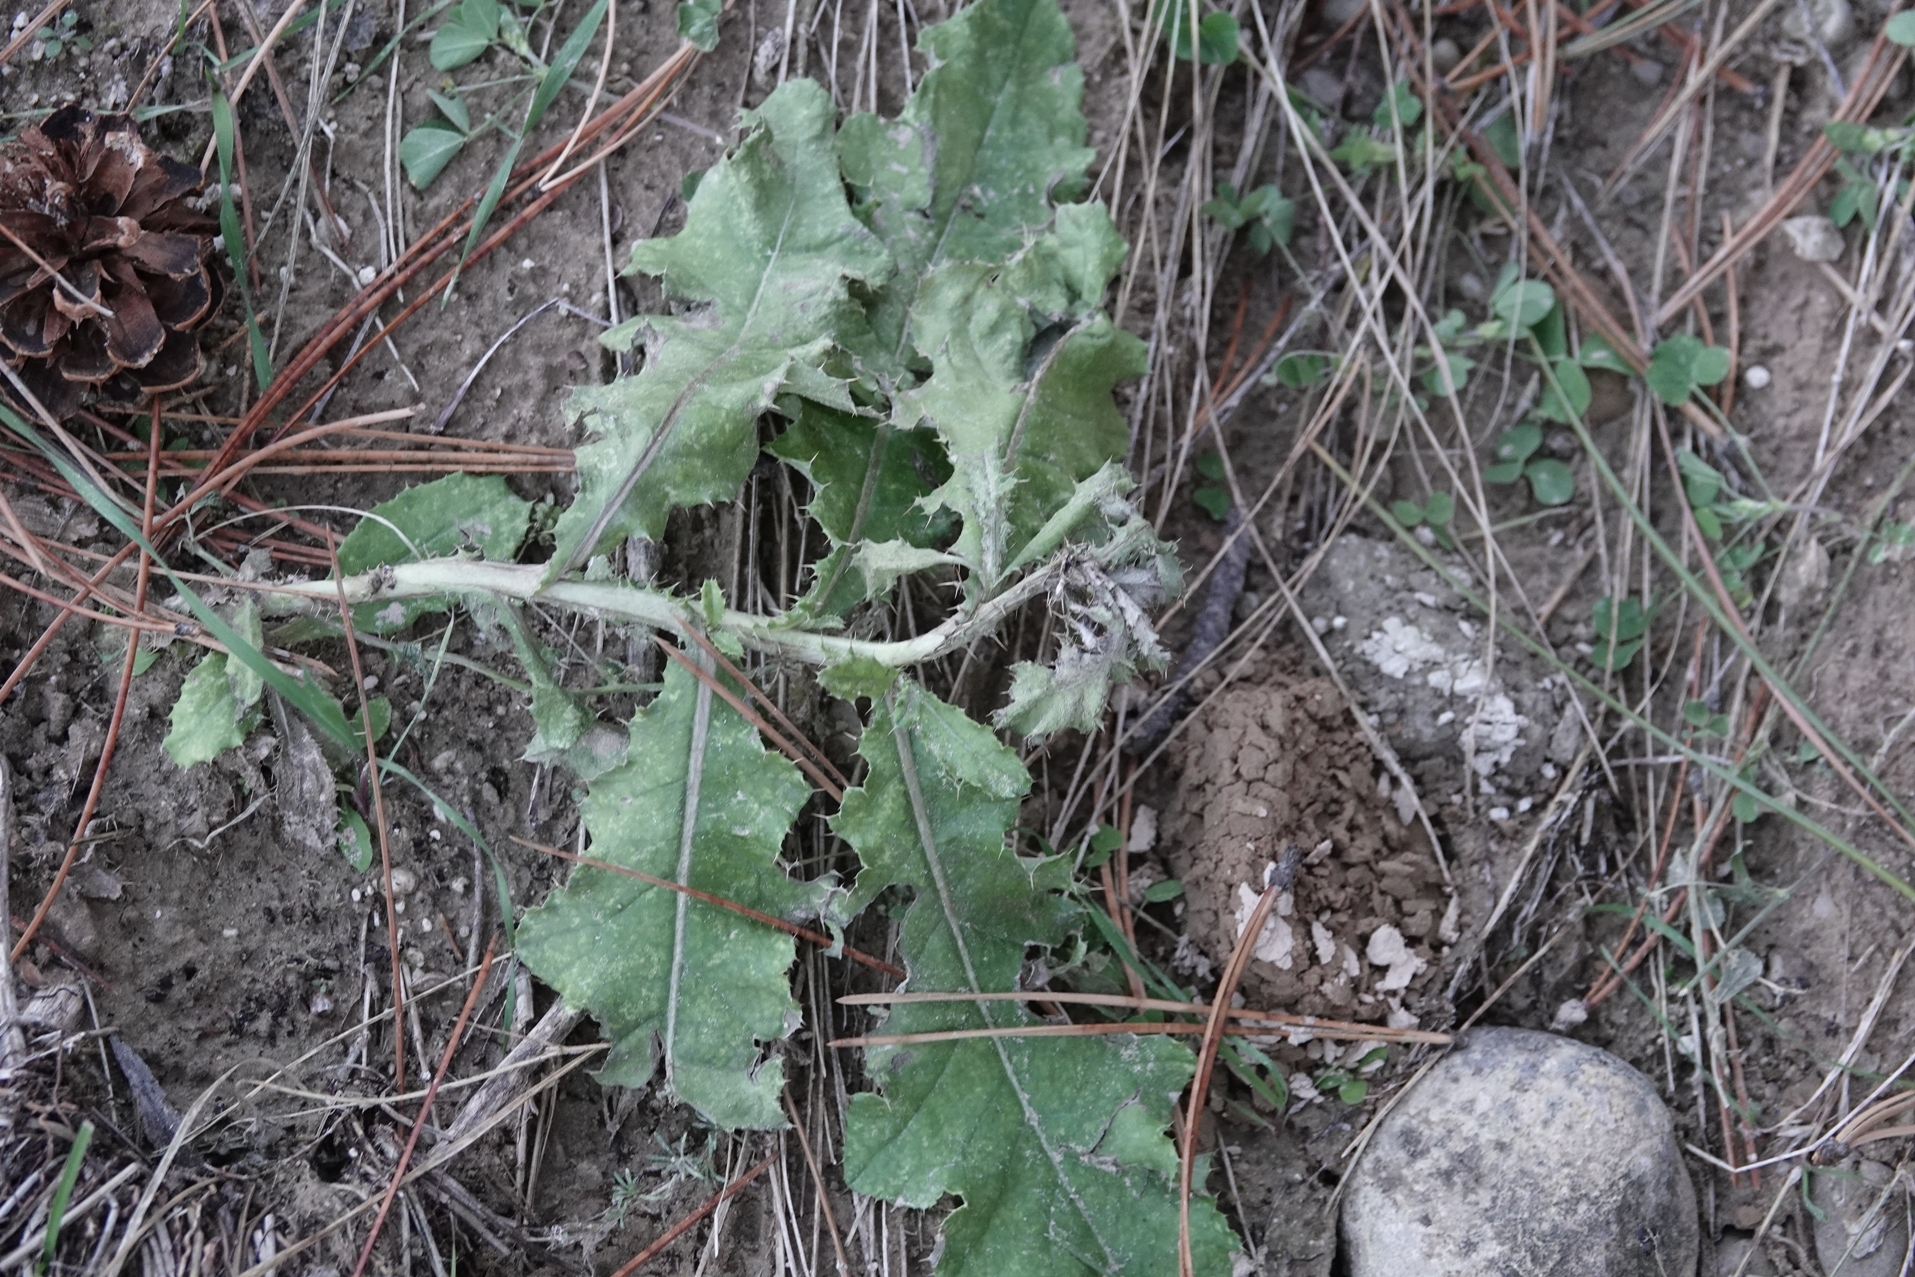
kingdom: Plantae
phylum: Tracheophyta
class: Magnoliopsida
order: Asterales
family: Asteraceae
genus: Cirsium
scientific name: Cirsium arvense
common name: Creeping thistle
